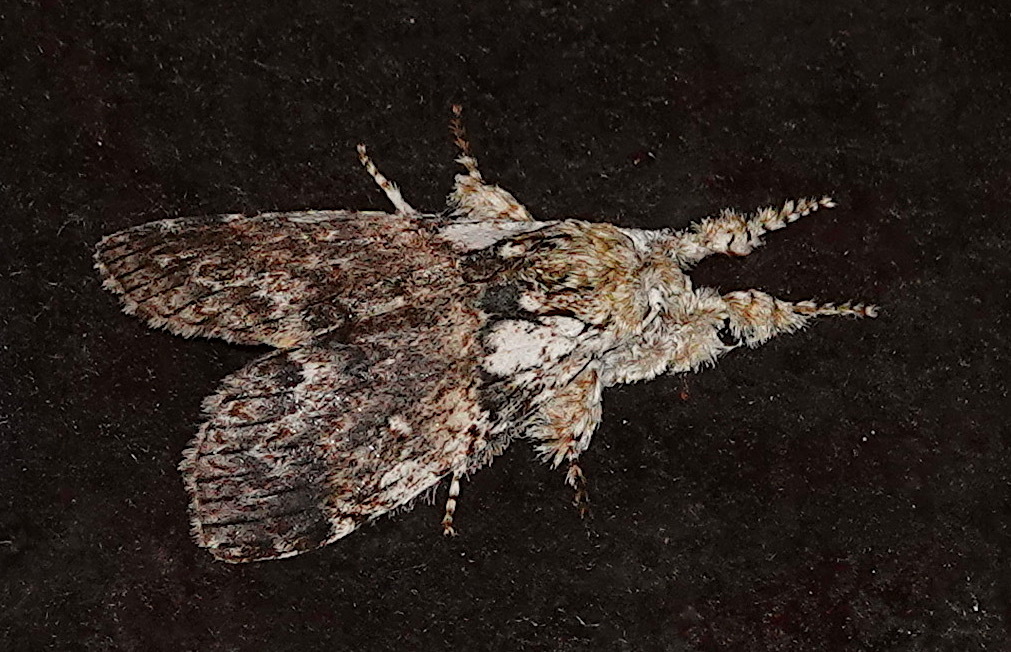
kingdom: Animalia
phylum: Arthropoda
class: Insecta
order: Lepidoptera
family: Erebidae
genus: Calliteara
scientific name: Calliteara strigata
